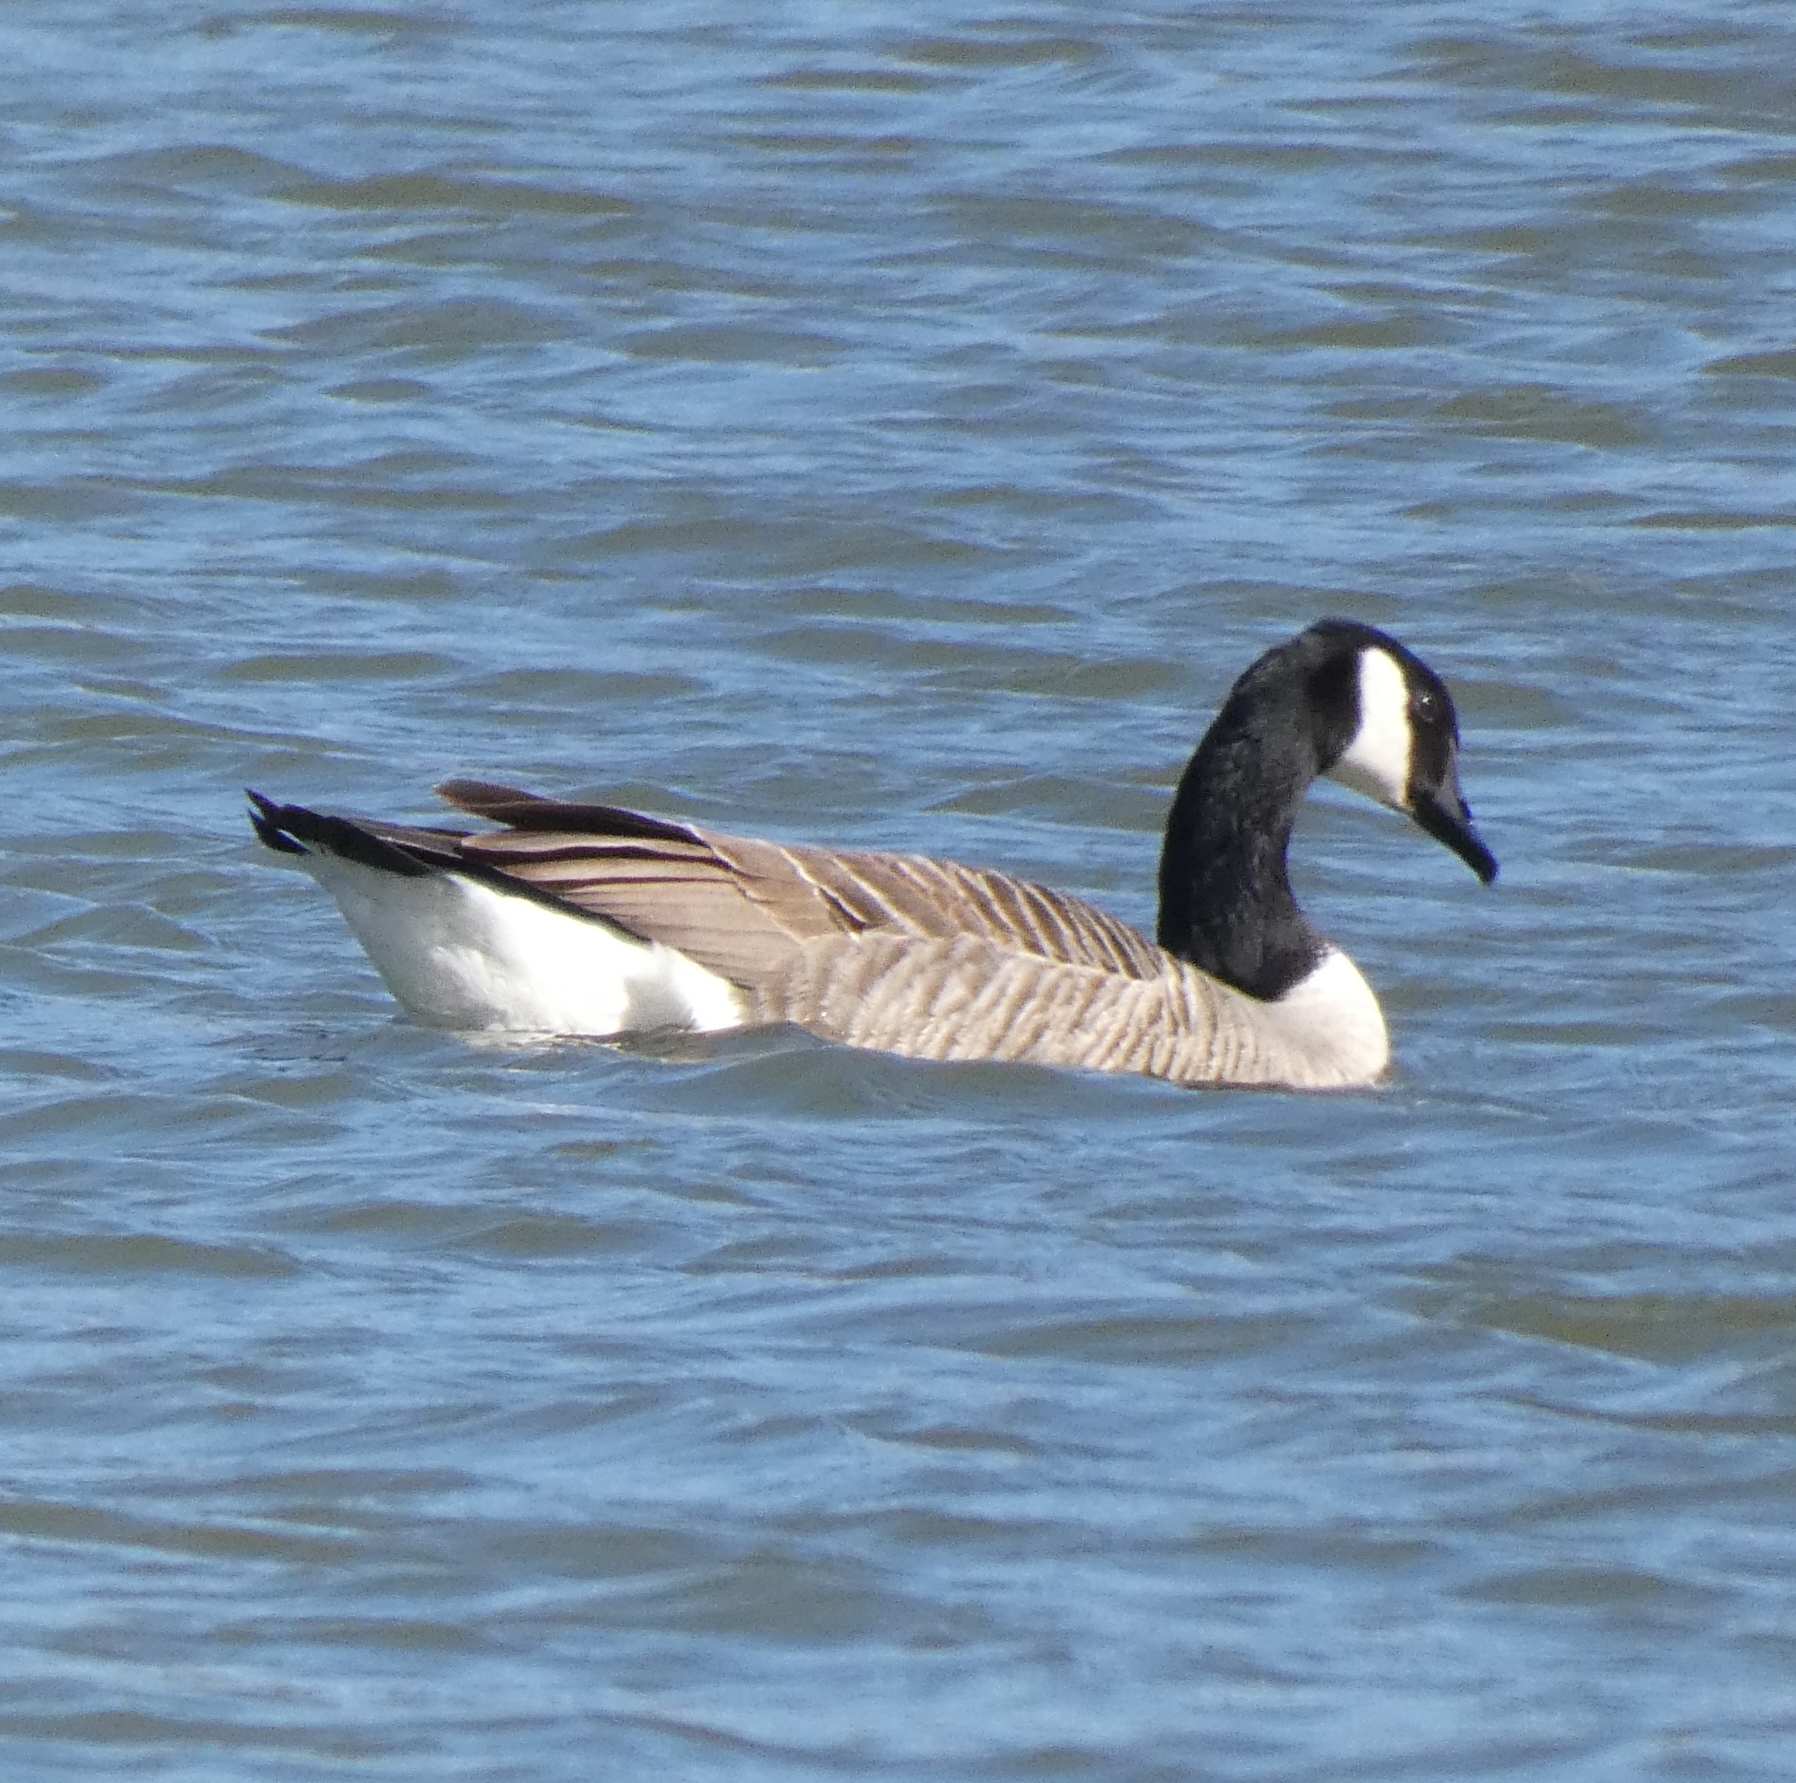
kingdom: Animalia
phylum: Chordata
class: Aves
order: Anseriformes
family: Anatidae
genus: Branta
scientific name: Branta canadensis
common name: Canada goose
